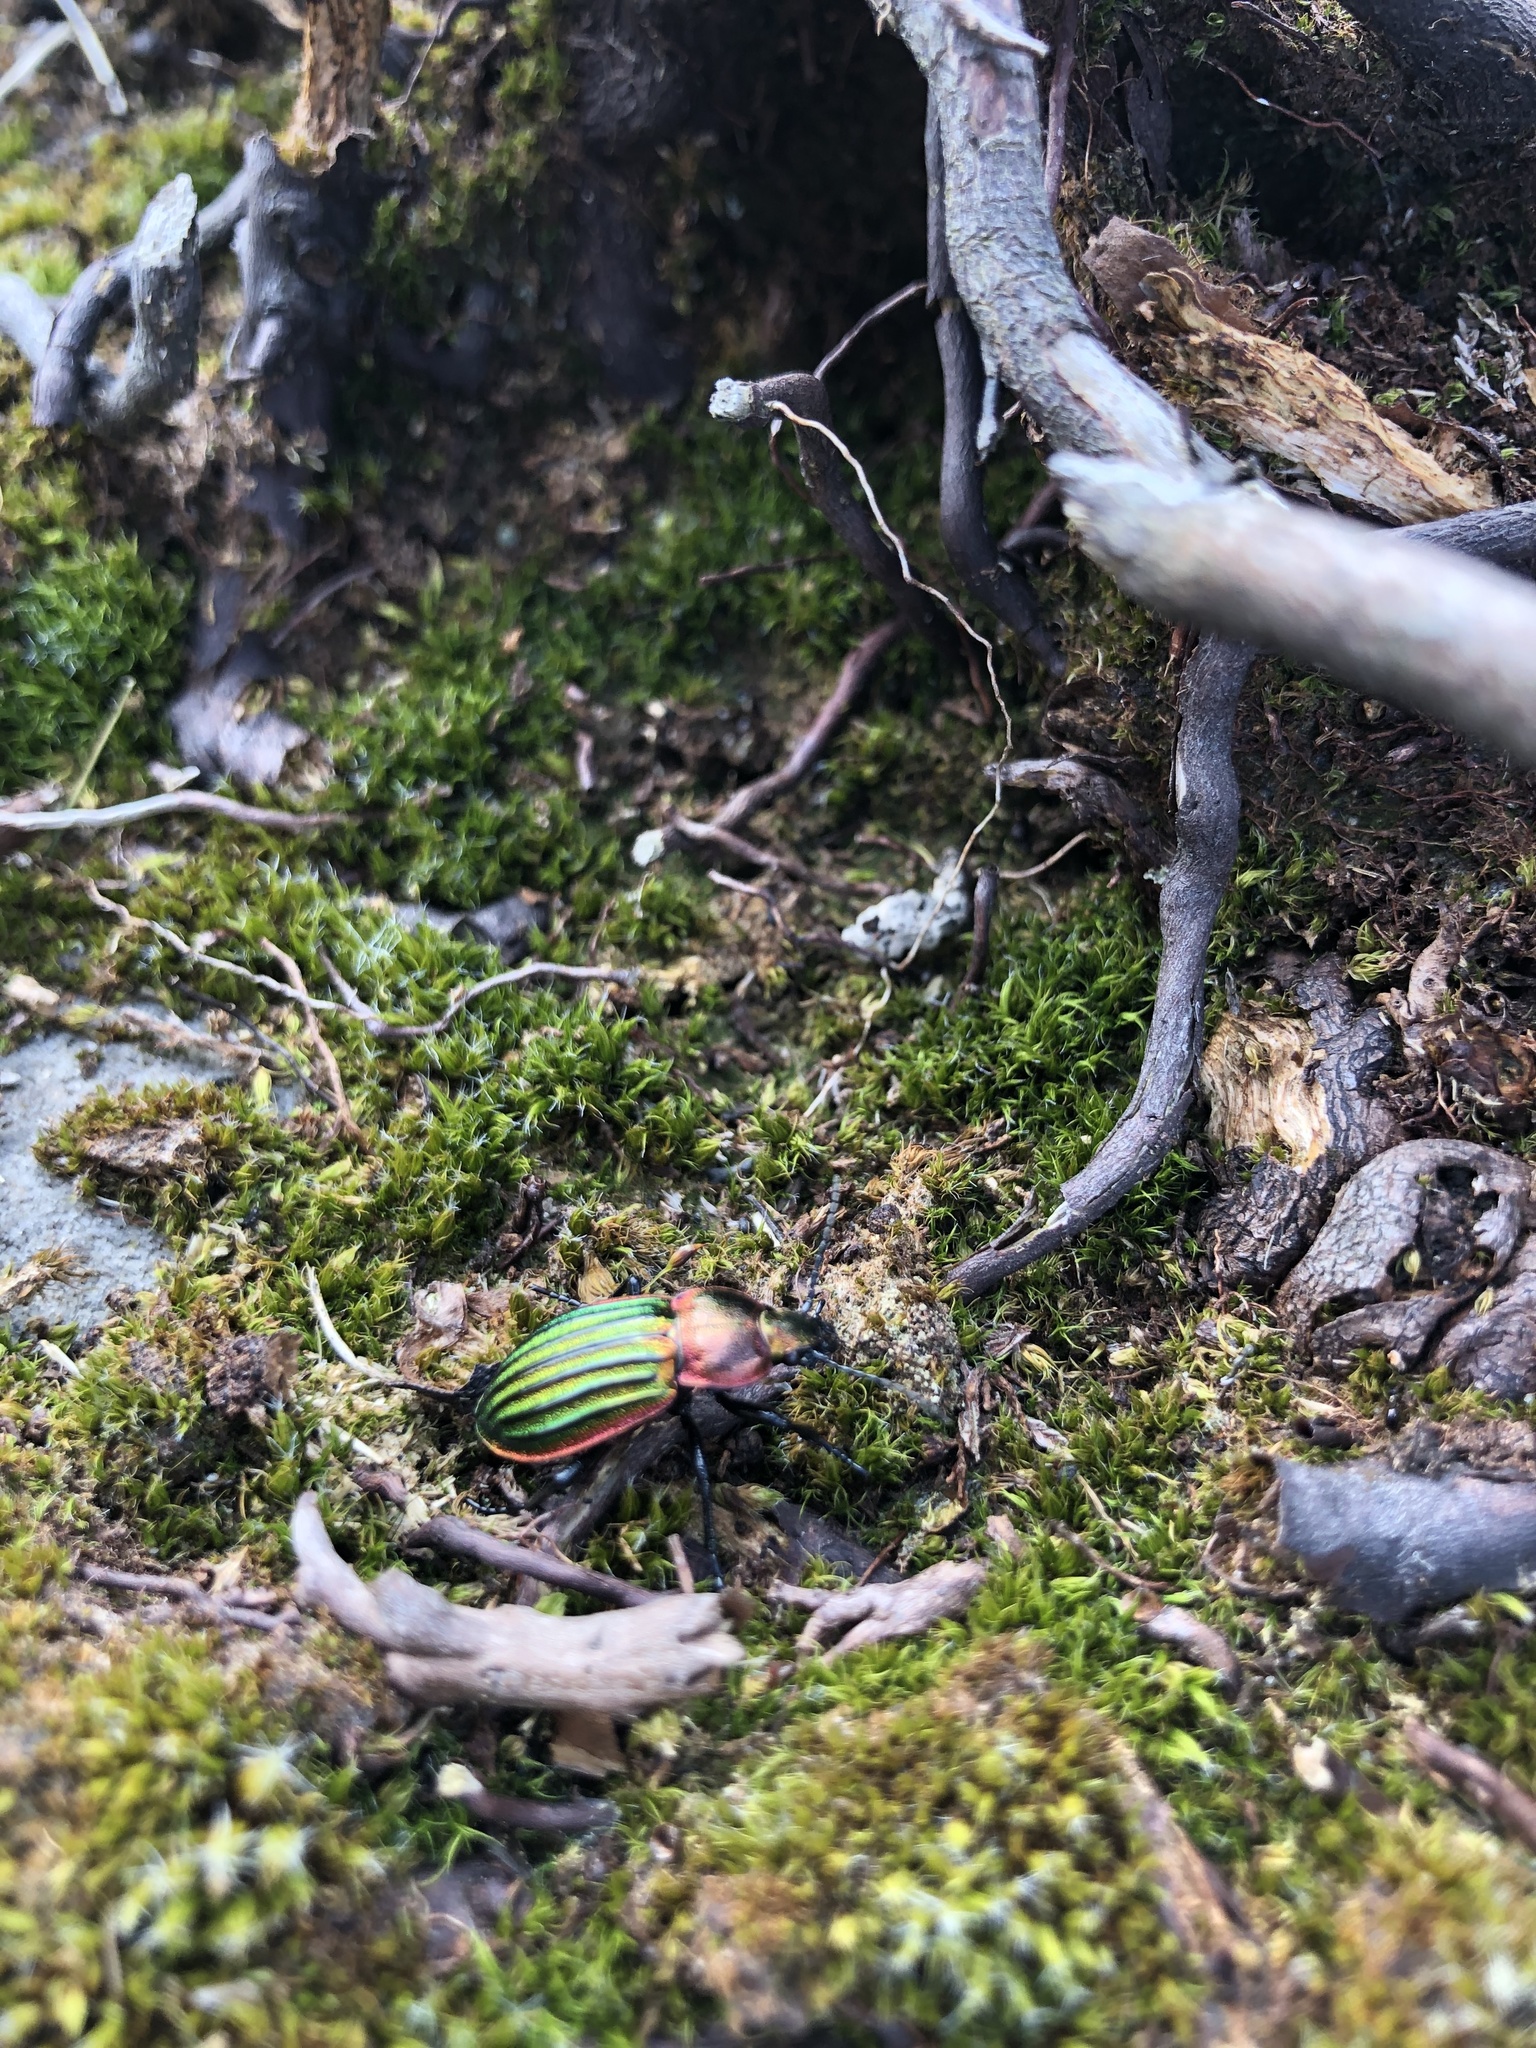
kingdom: Animalia
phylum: Arthropoda
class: Insecta
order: Coleoptera
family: Carabidae
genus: Carabus
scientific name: Carabus nitens
